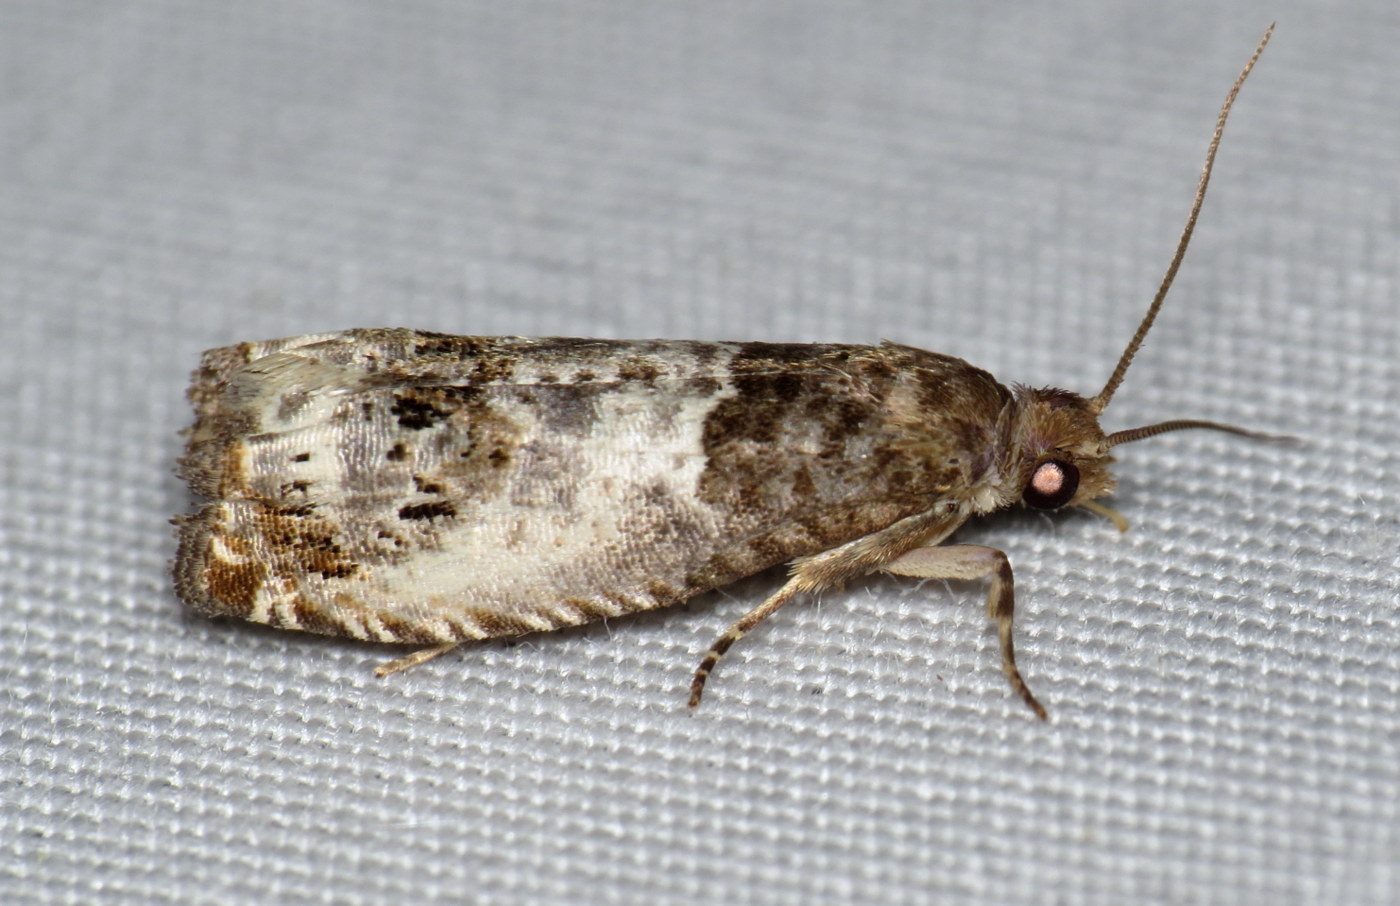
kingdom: Animalia
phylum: Arthropoda
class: Insecta
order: Lepidoptera
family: Tortricidae
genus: Notocelia
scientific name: Notocelia rosaecolana
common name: Common rose bell
